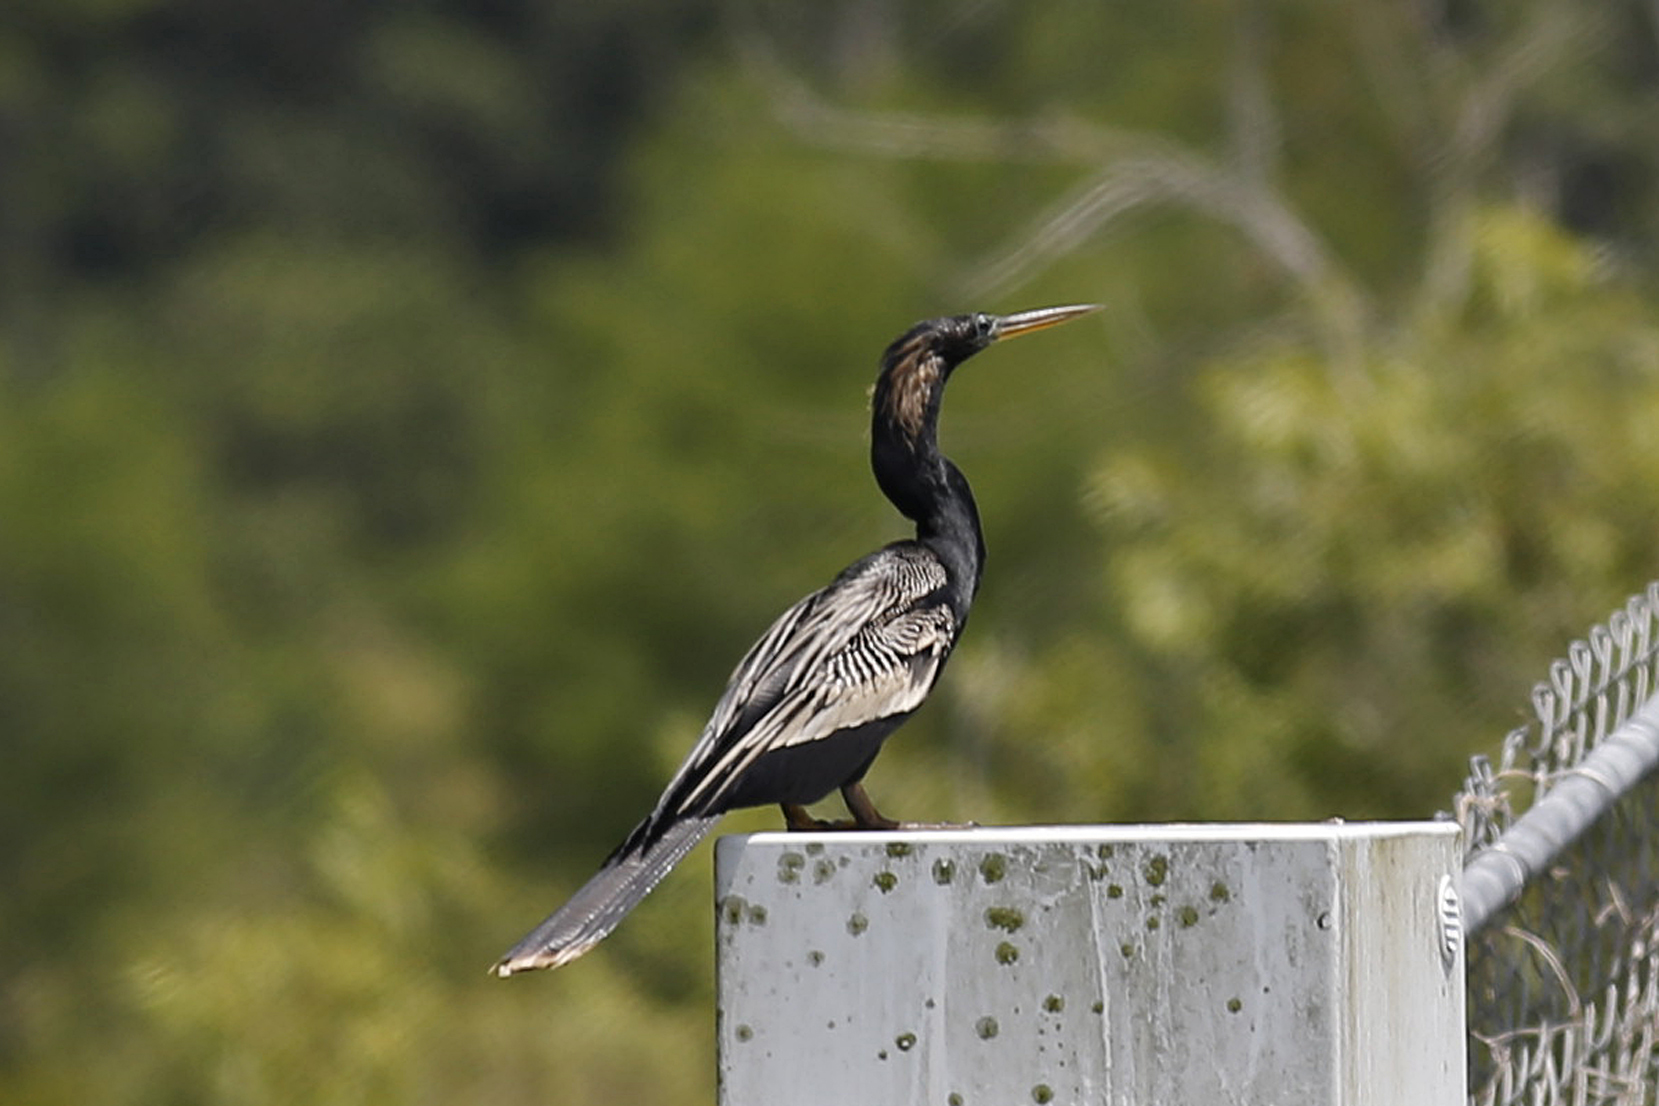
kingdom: Animalia
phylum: Chordata
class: Aves
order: Suliformes
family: Anhingidae
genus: Anhinga
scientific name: Anhinga anhinga
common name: Anhinga
